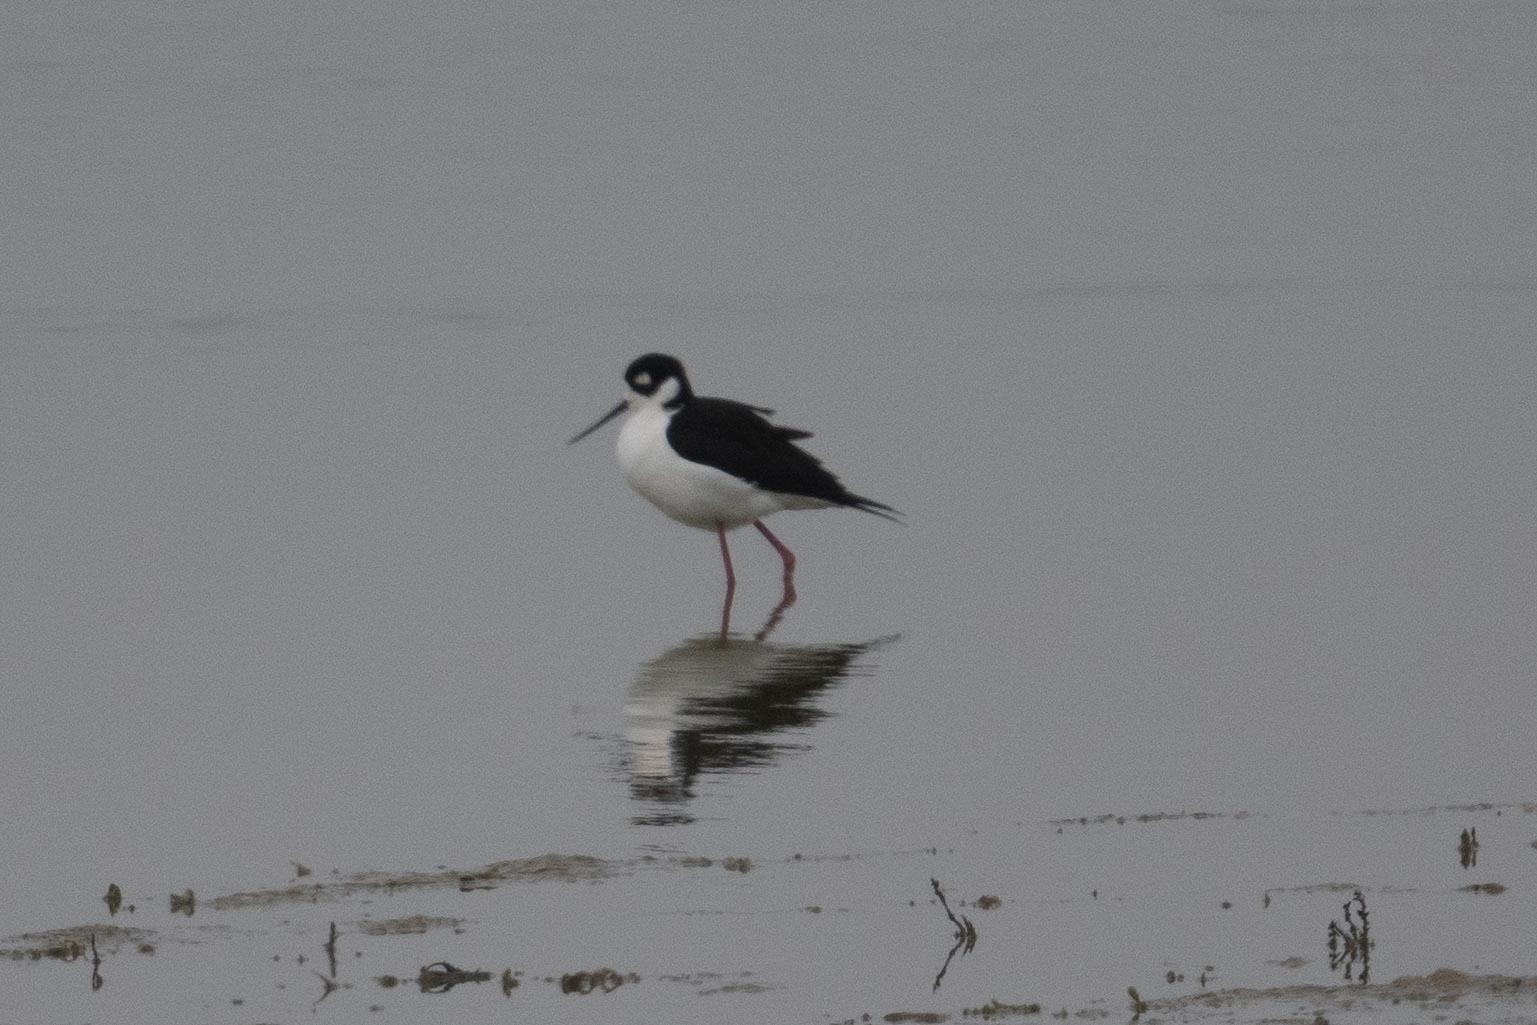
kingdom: Animalia
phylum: Chordata
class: Aves
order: Charadriiformes
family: Recurvirostridae
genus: Himantopus
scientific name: Himantopus mexicanus
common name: Black-necked stilt
